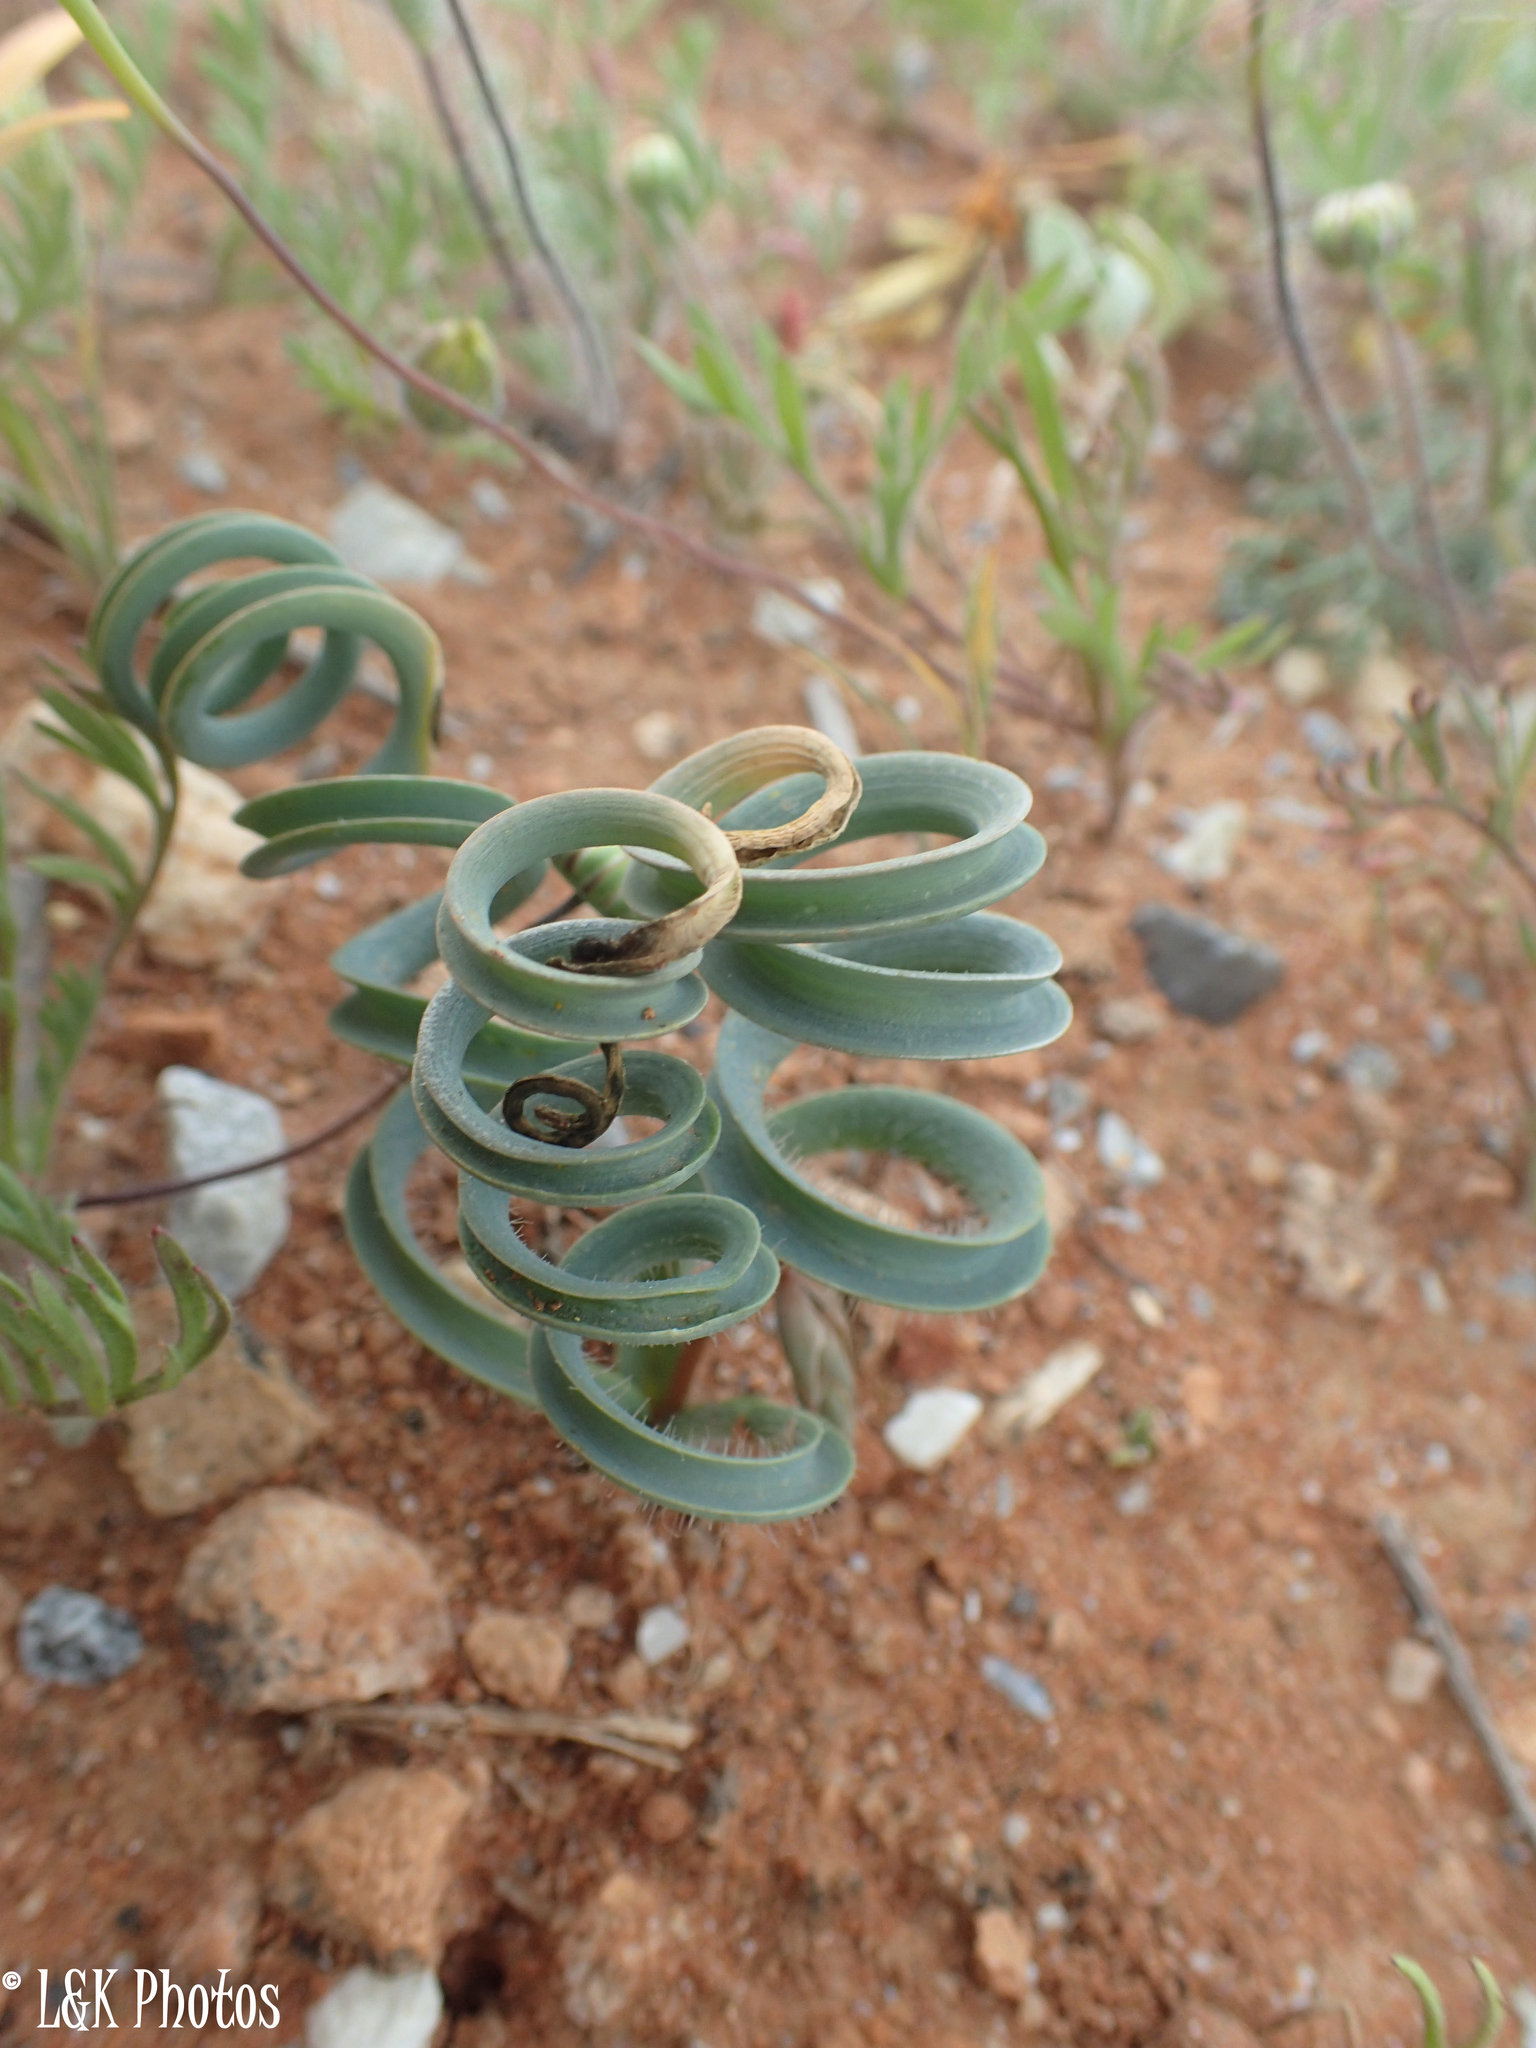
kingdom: Plantae
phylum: Tracheophyta
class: Liliopsida
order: Asparagales
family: Asparagaceae
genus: Dipcadi
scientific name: Dipcadi crispum
